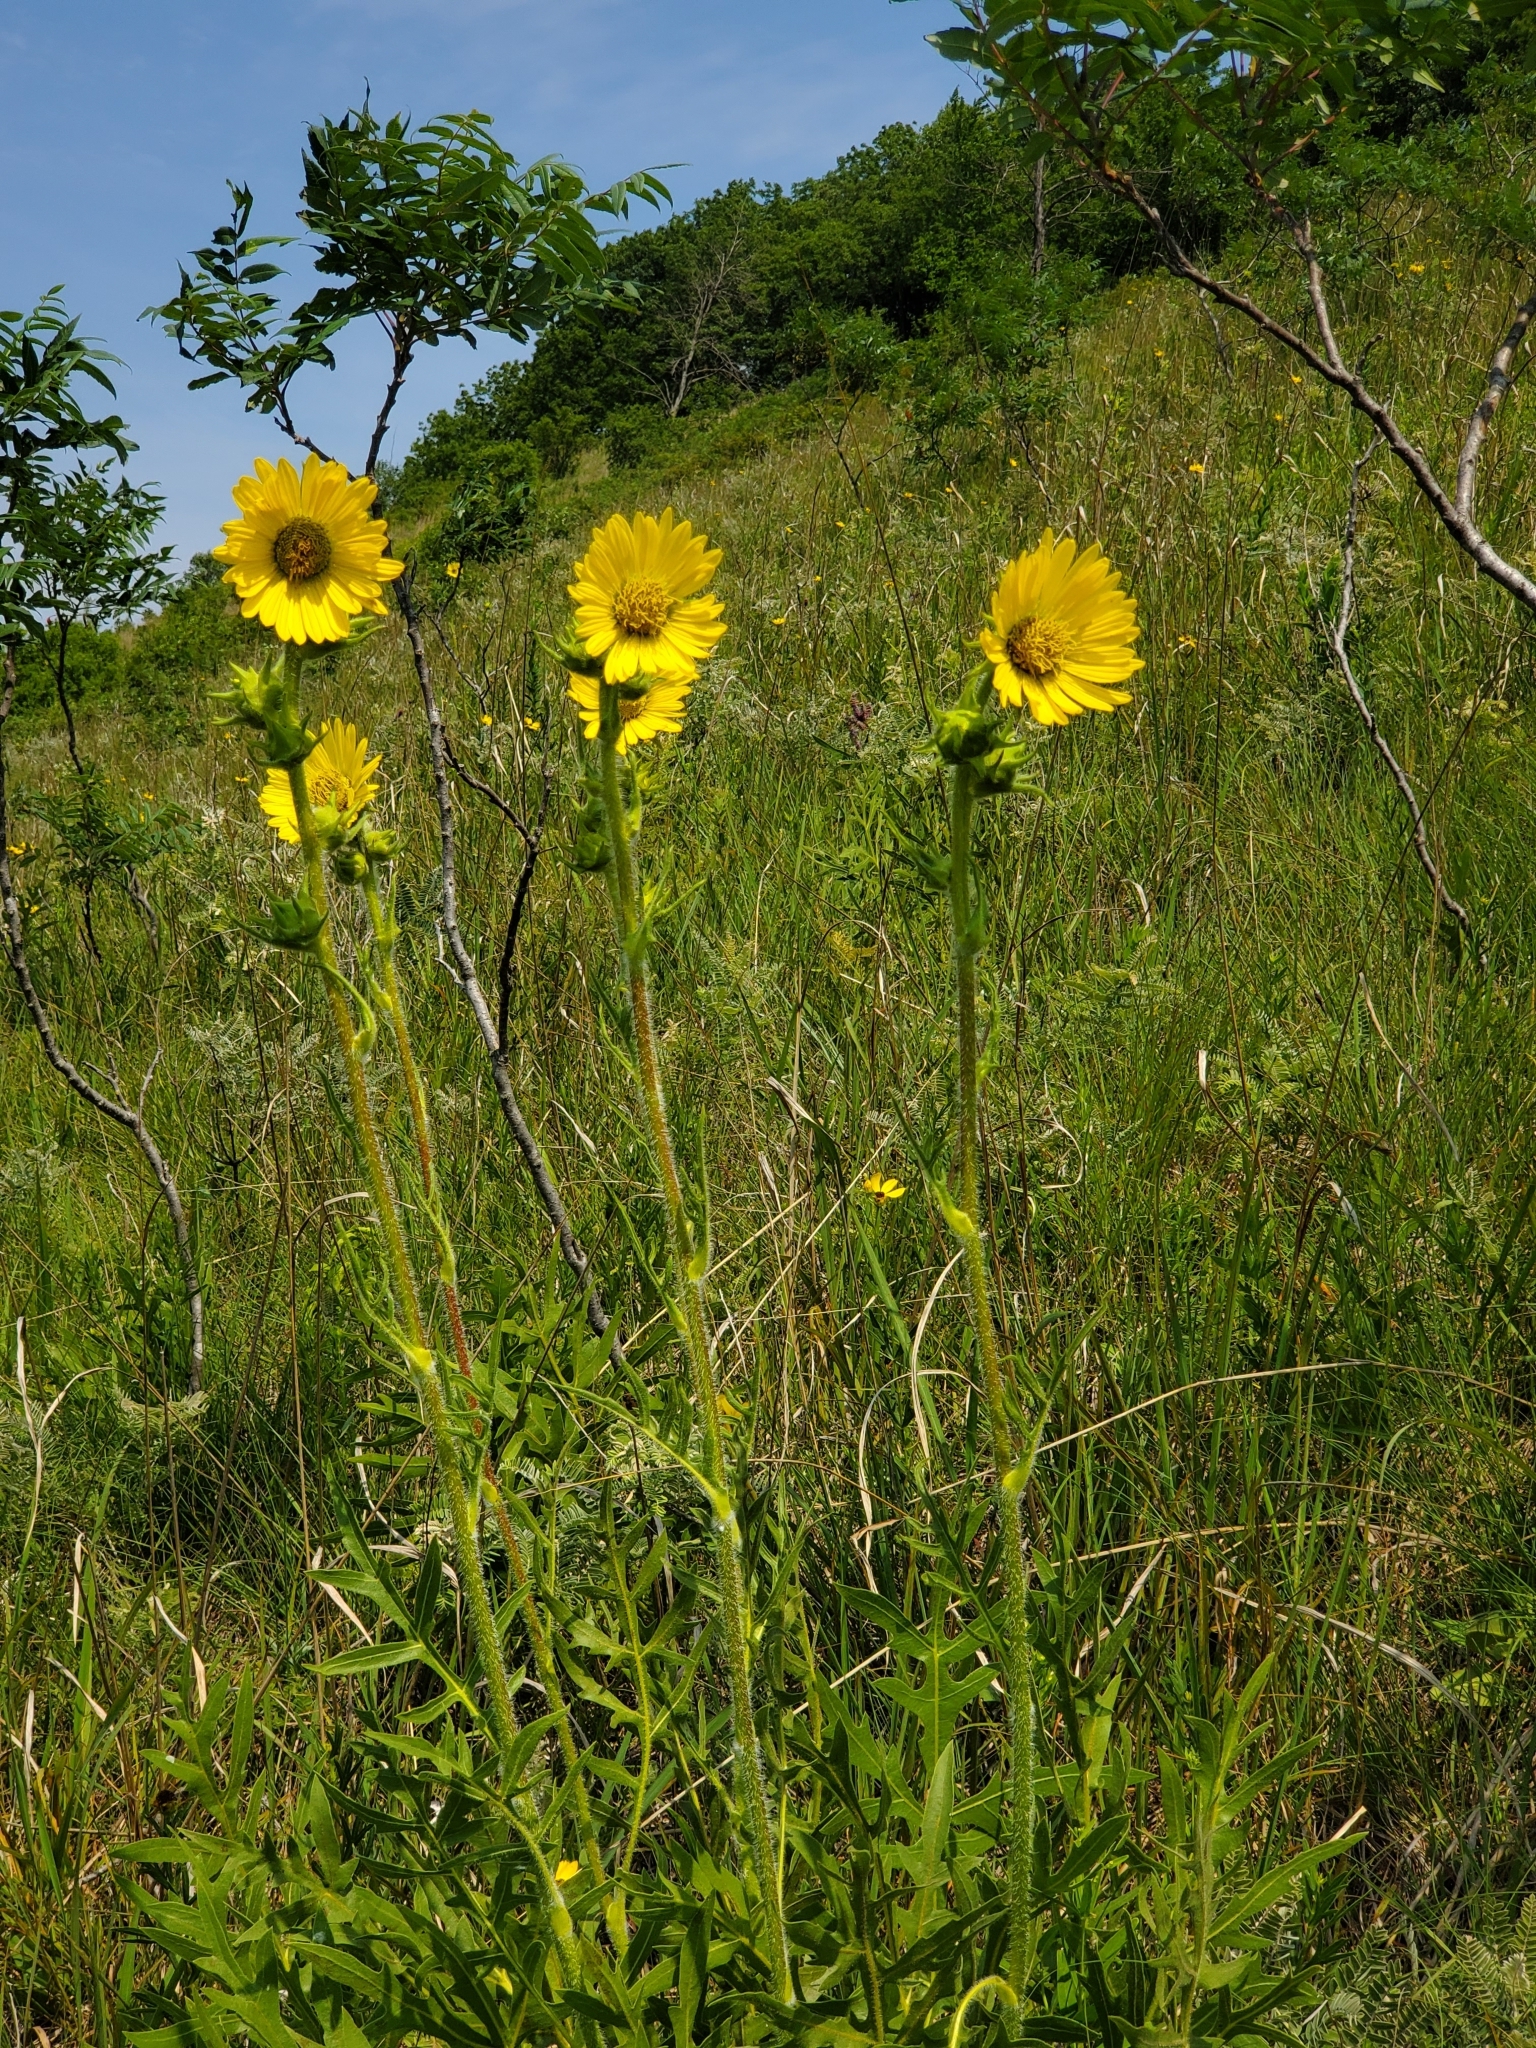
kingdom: Plantae
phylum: Tracheophyta
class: Magnoliopsida
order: Asterales
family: Asteraceae
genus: Silphium
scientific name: Silphium laciniatum
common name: Polarplant
